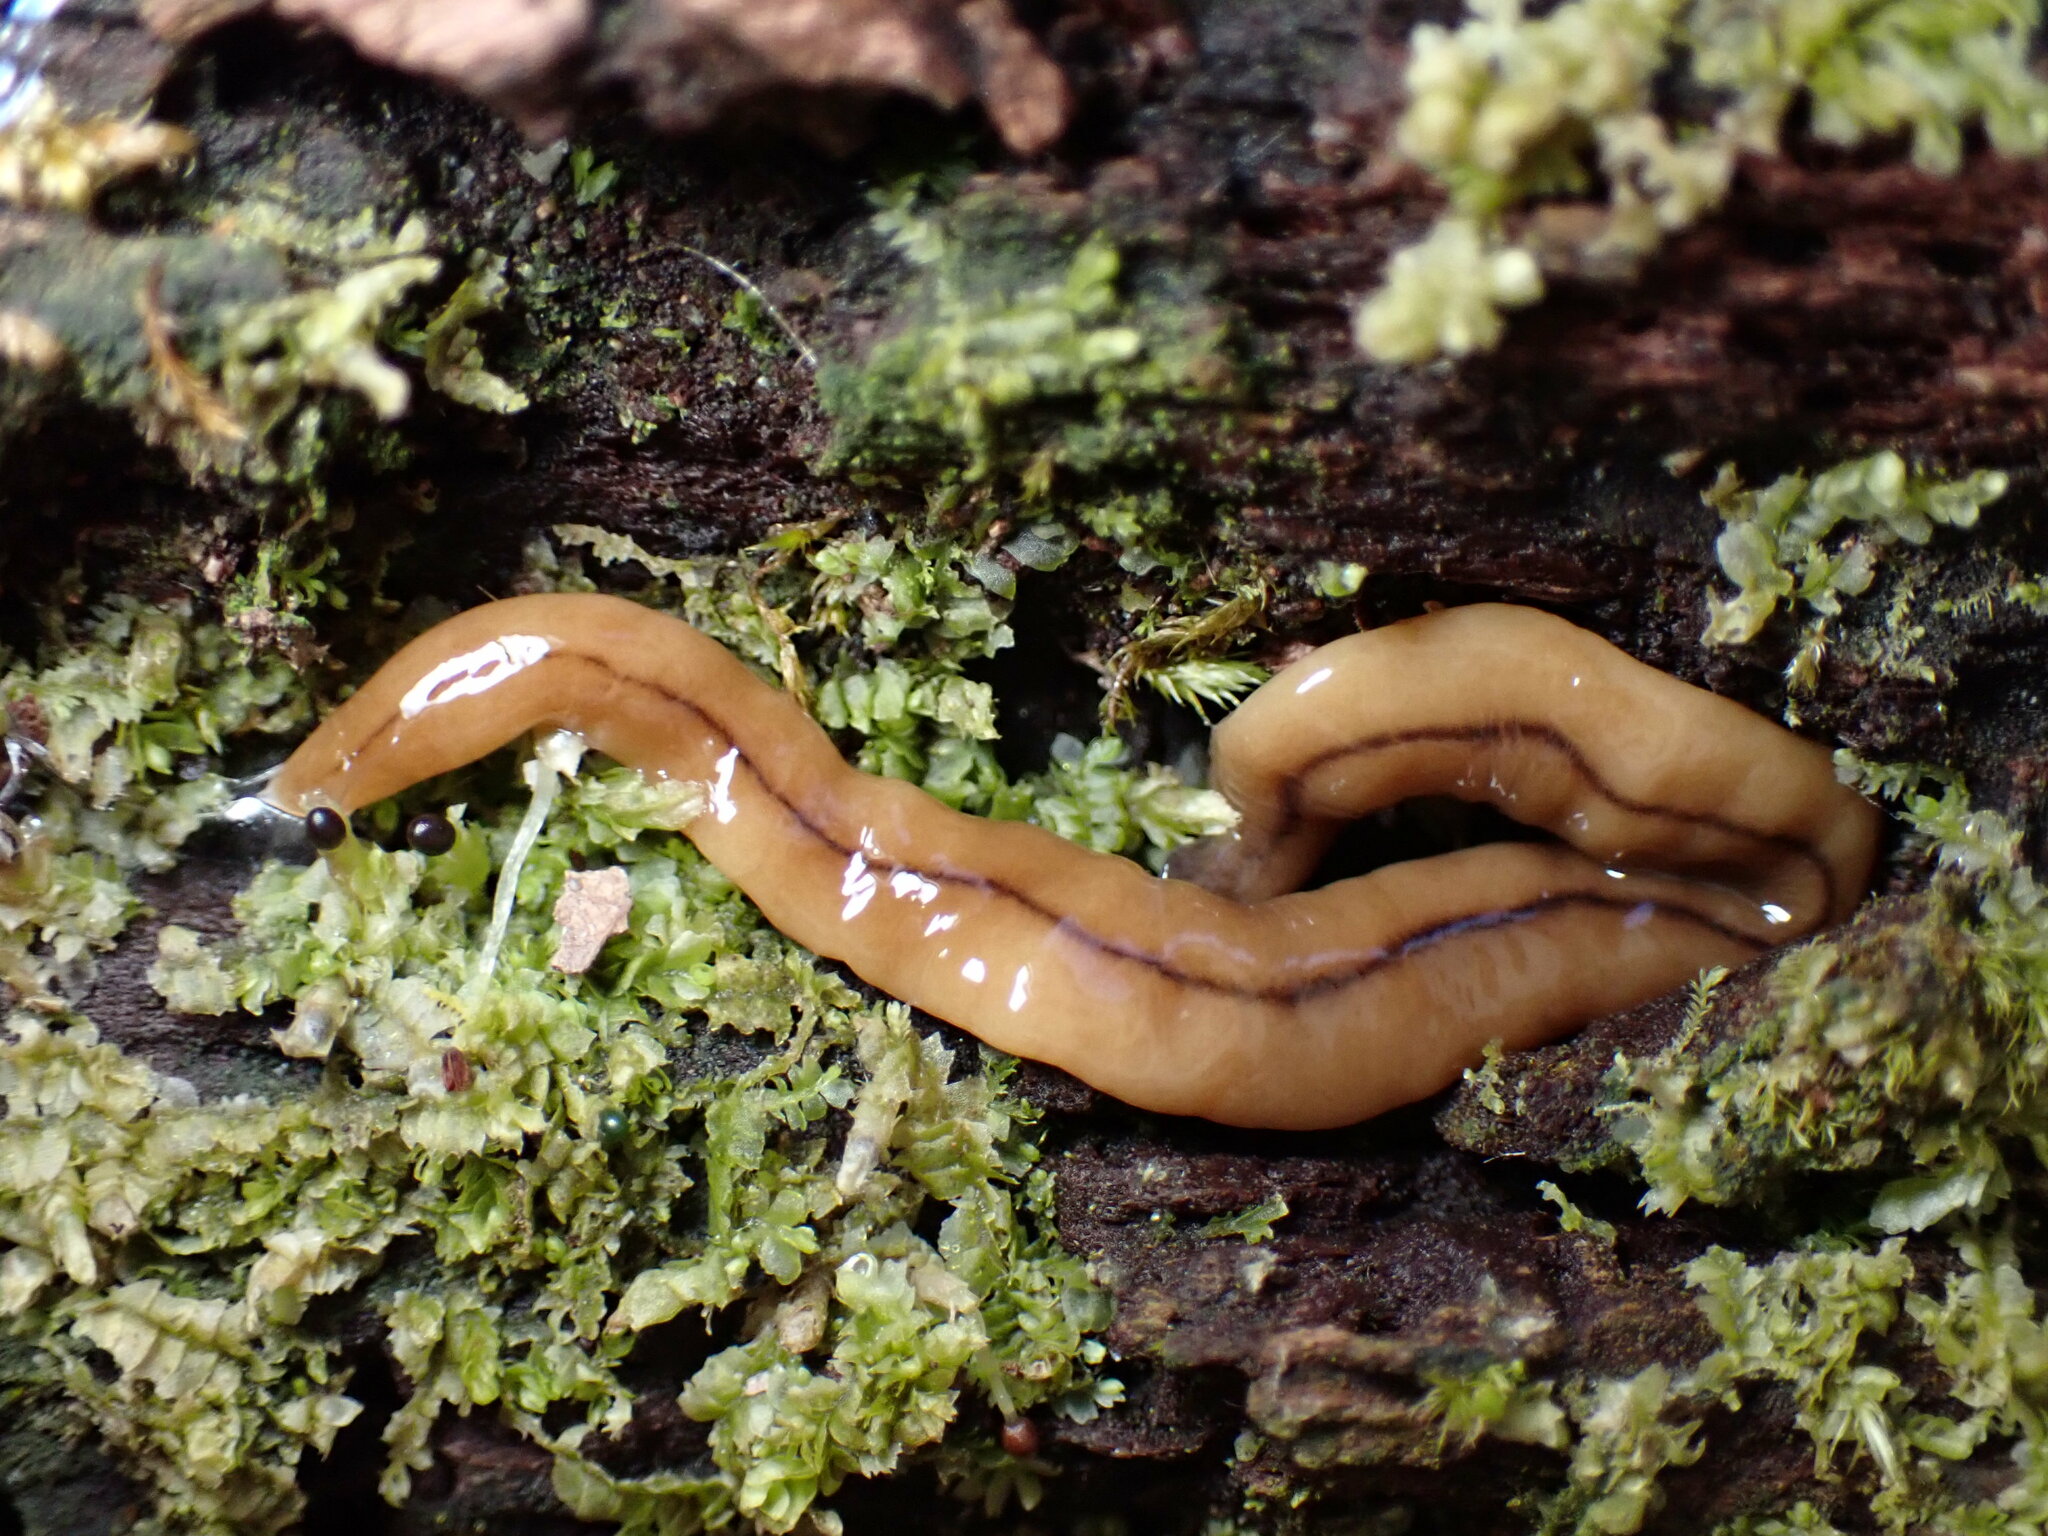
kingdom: Animalia
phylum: Platyhelminthes
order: Tricladida
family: Geoplanidae
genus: Bipalium
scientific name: Bipalium adventitium
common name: Land planarian
